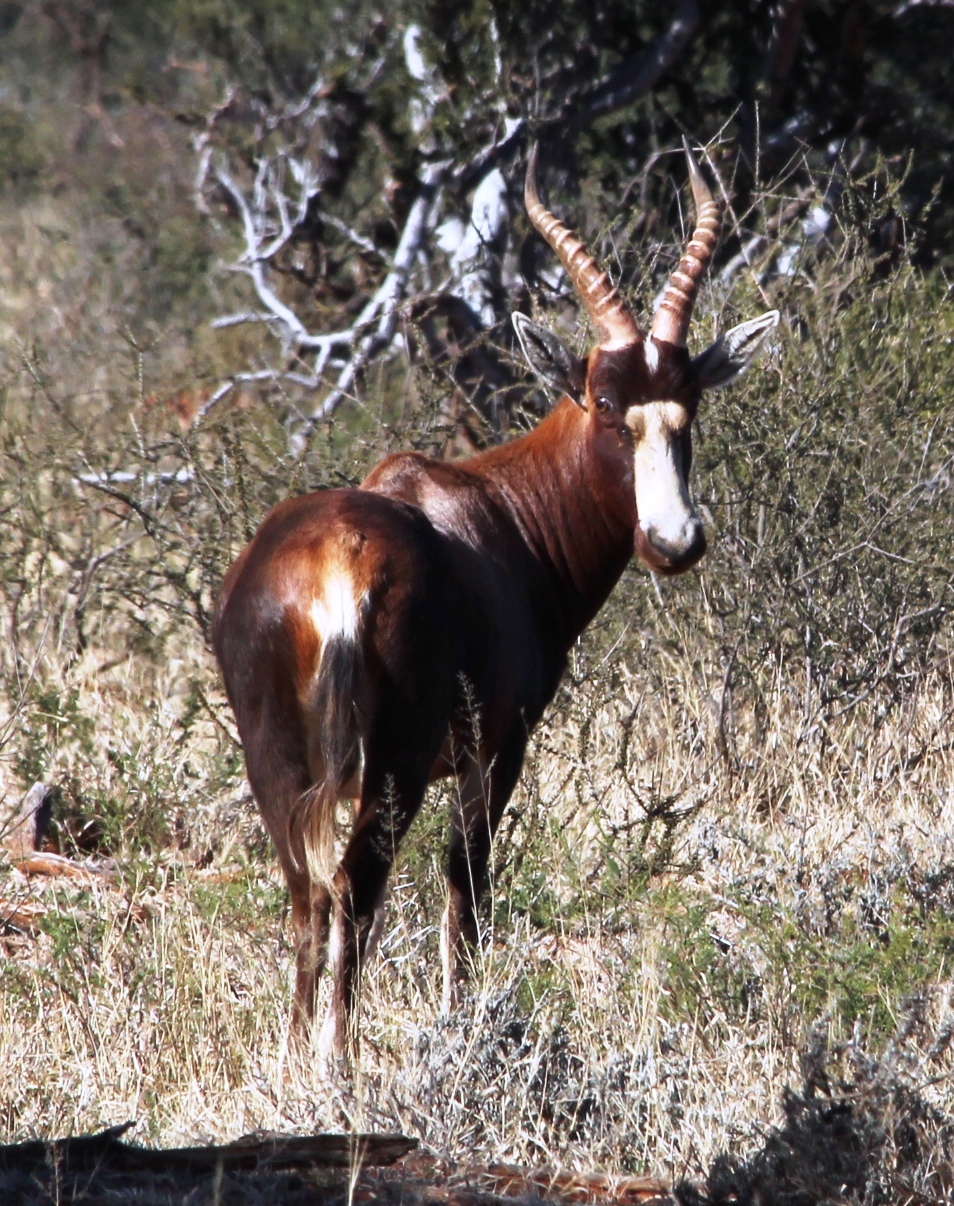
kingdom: Animalia
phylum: Chordata
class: Mammalia
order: Artiodactyla
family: Bovidae
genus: Damaliscus
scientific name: Damaliscus pygargus
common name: Bontebok
